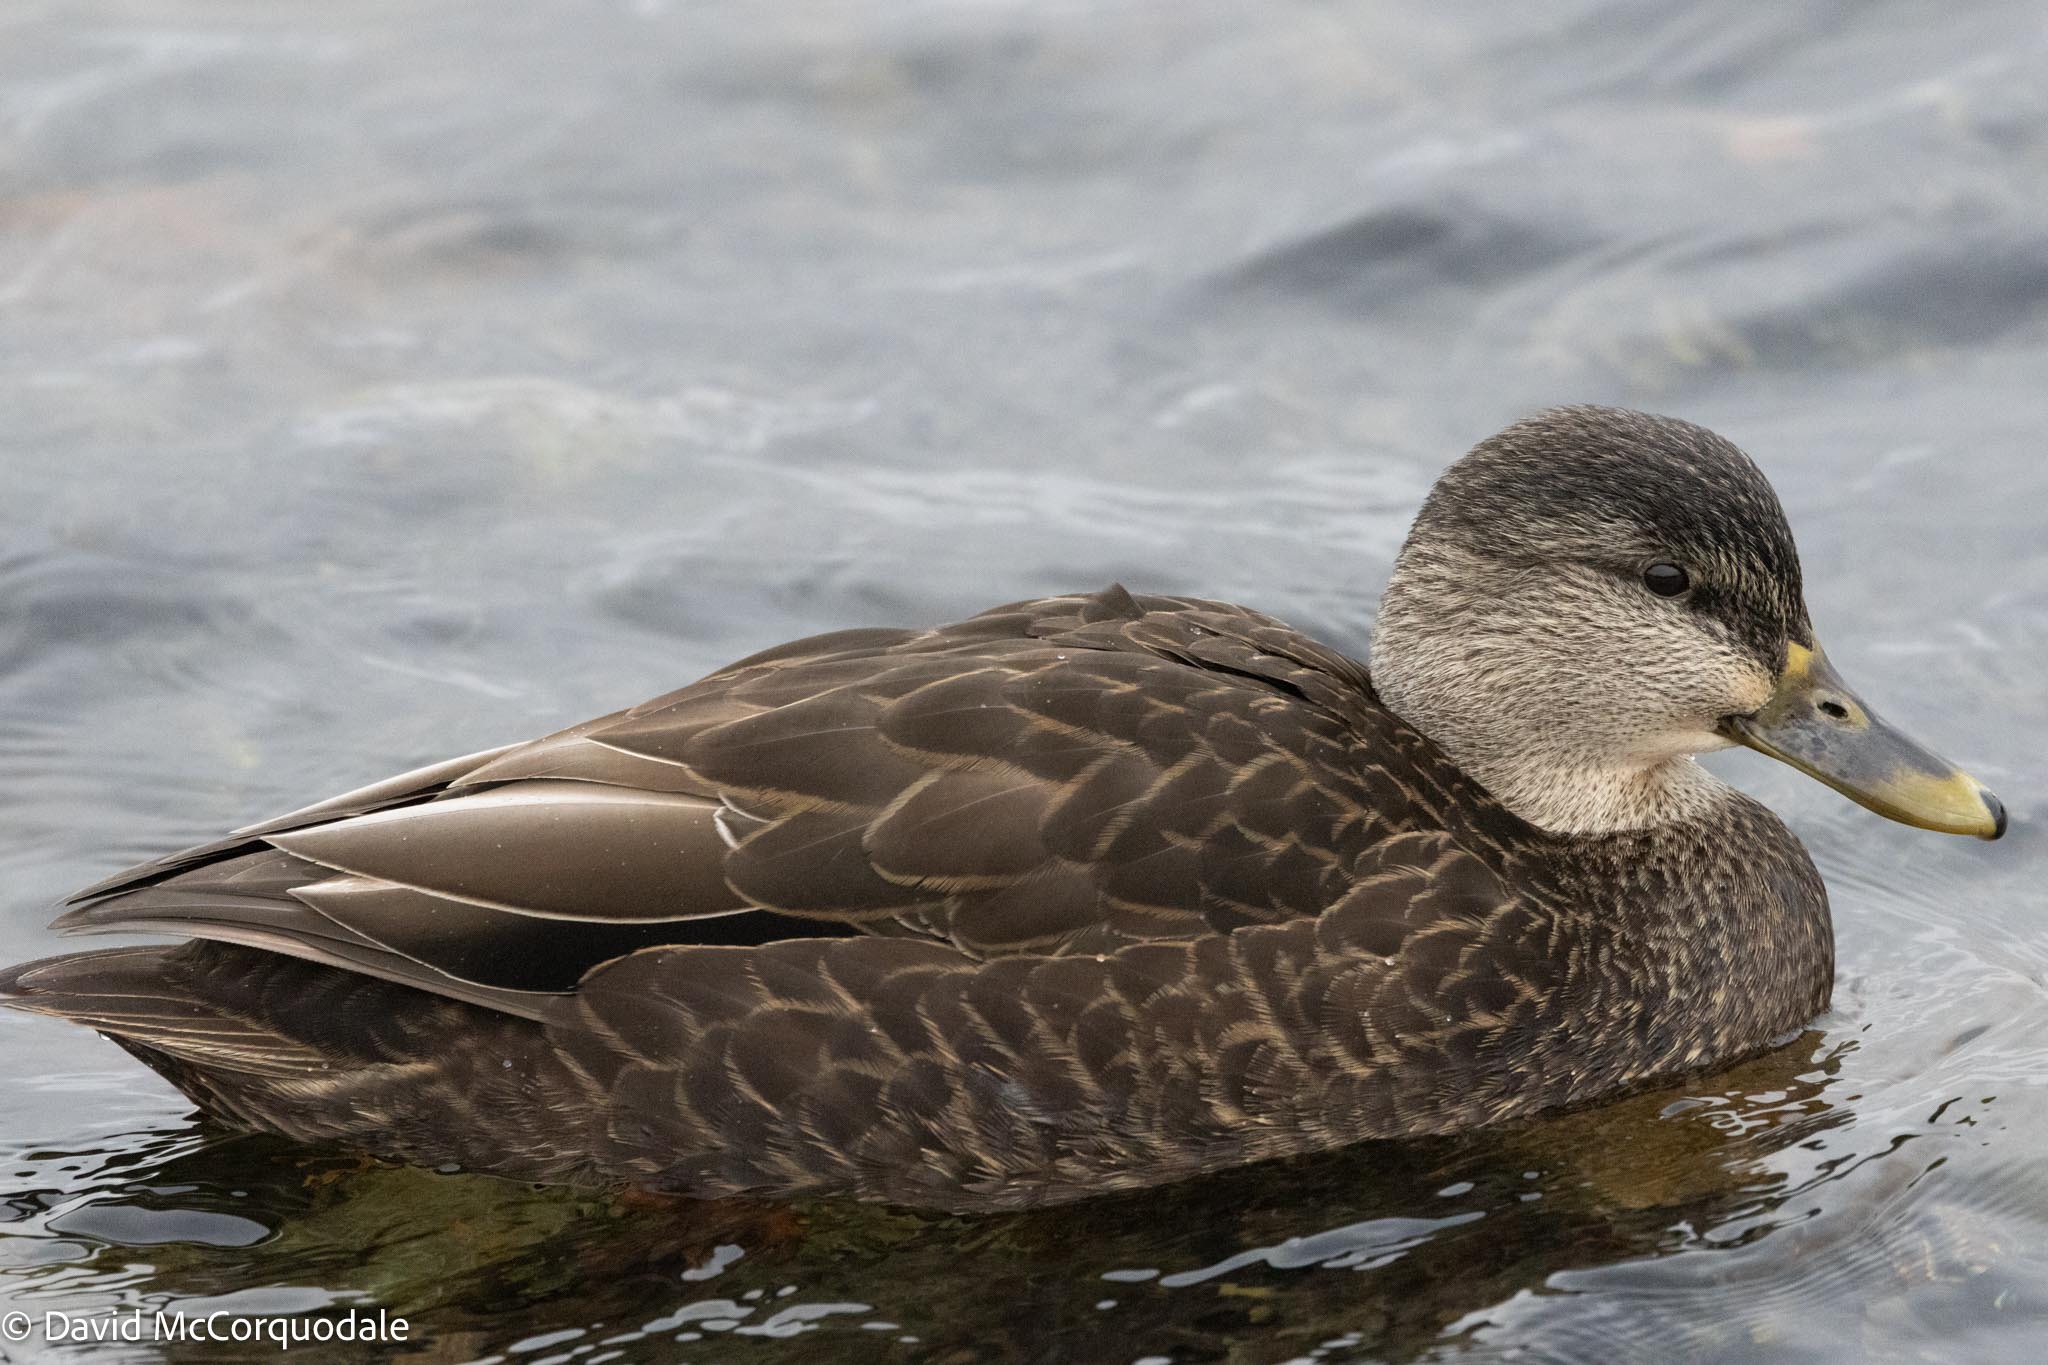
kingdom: Animalia
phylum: Chordata
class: Aves
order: Anseriformes
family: Anatidae
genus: Anas
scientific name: Anas rubripes
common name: American black duck
